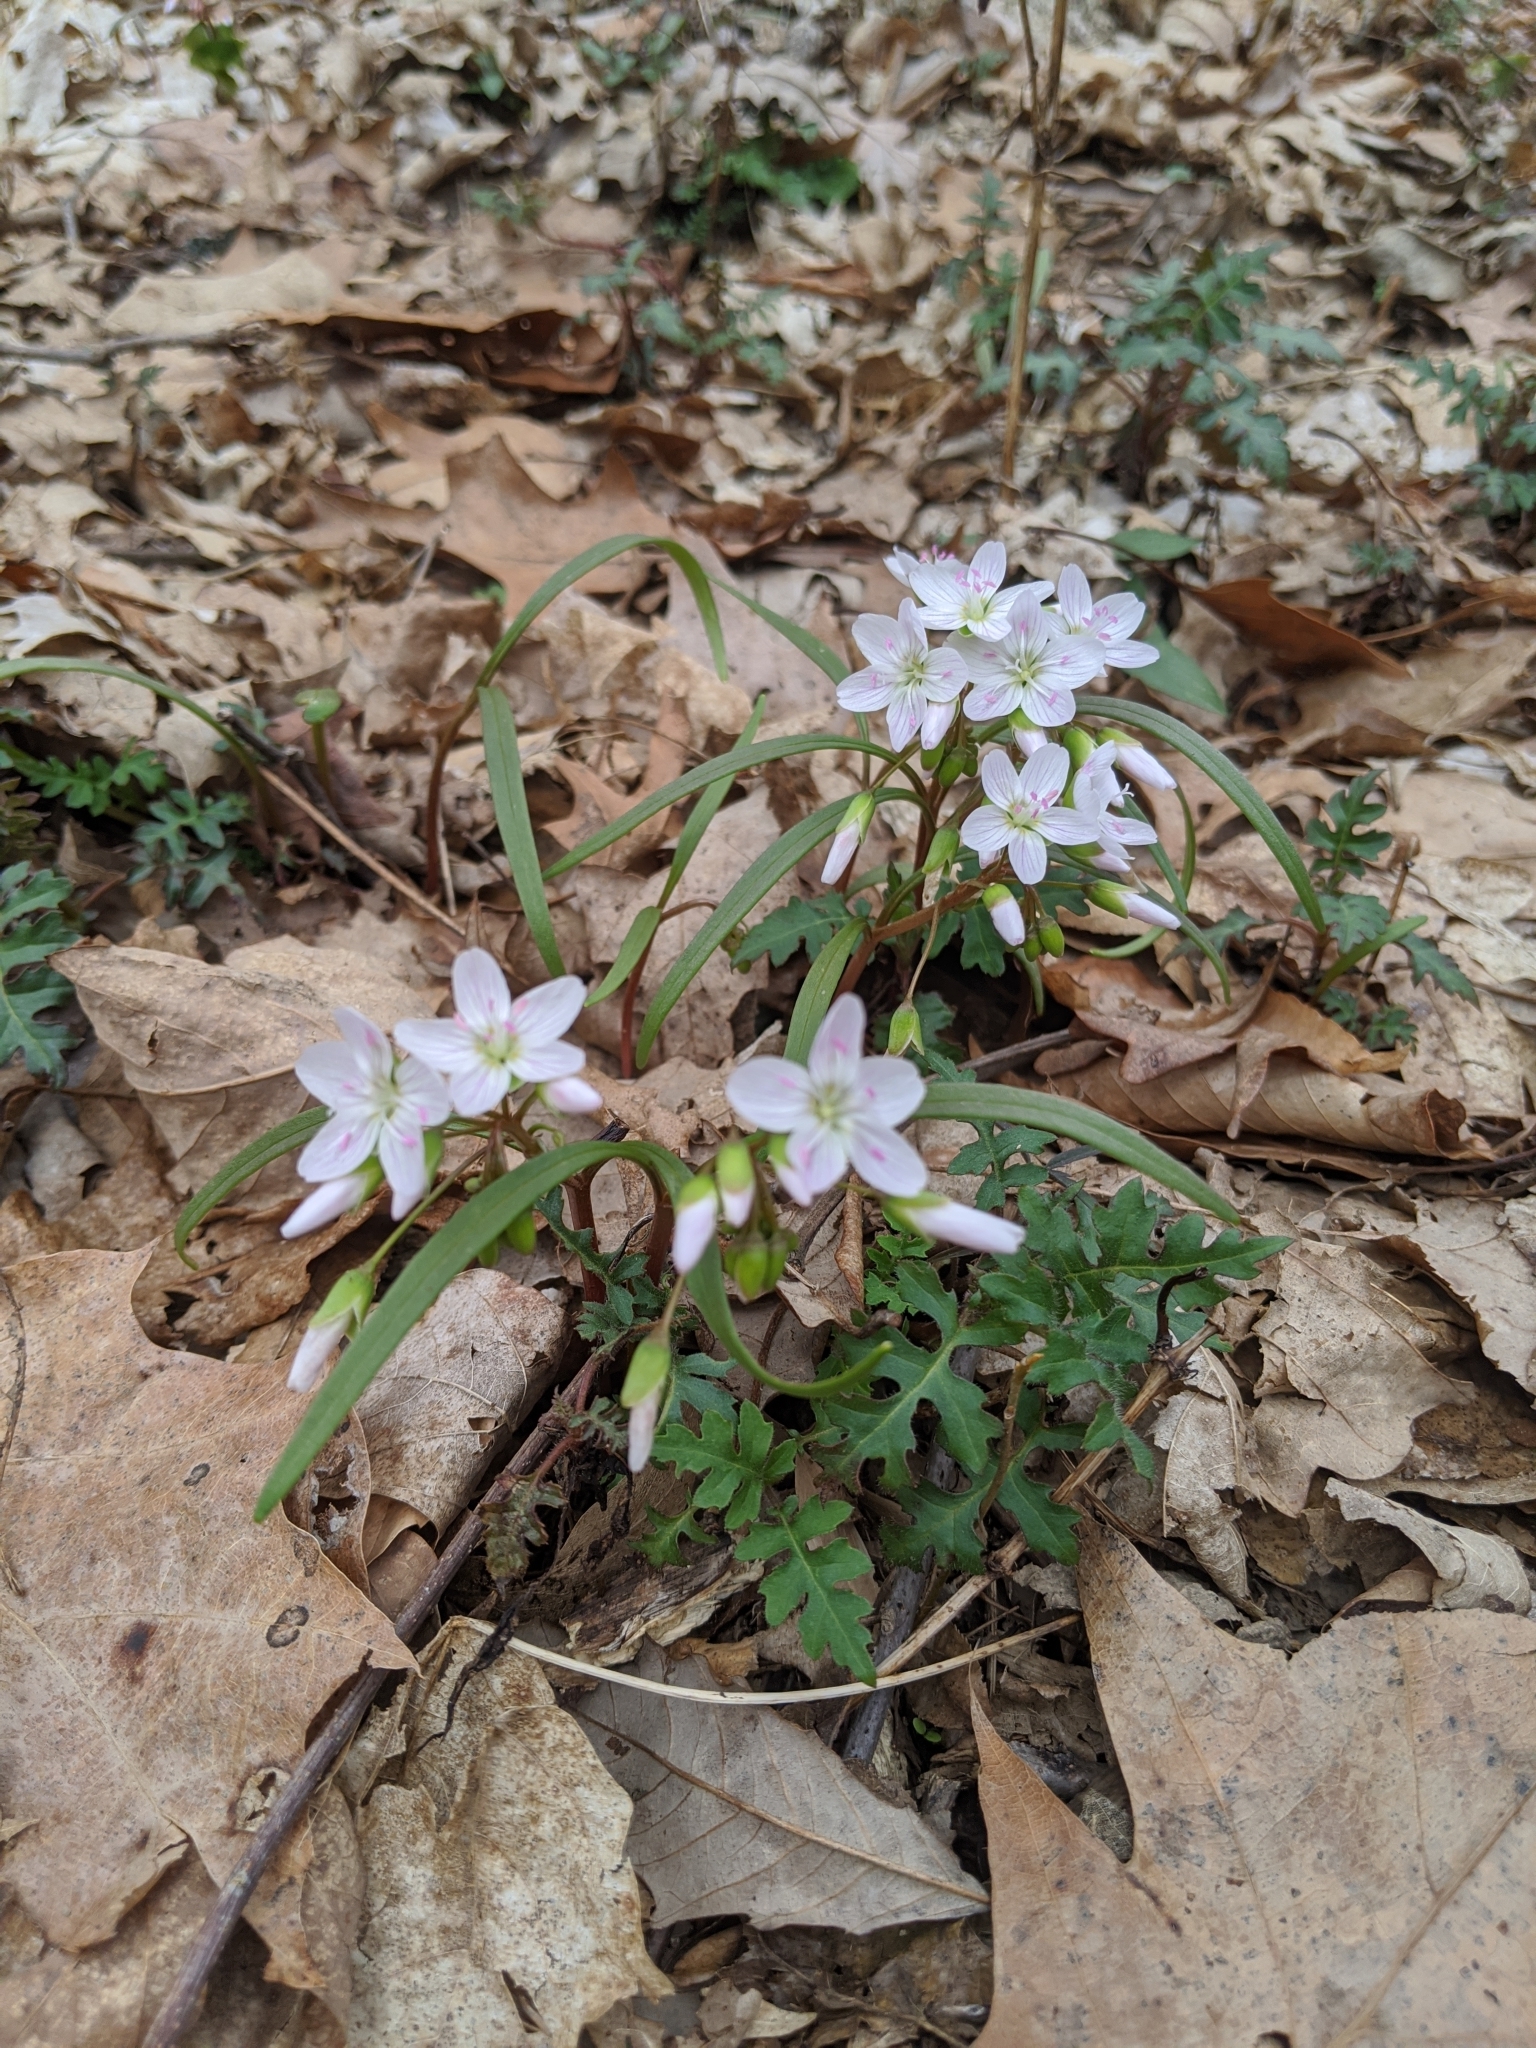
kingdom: Plantae
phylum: Tracheophyta
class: Magnoliopsida
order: Caryophyllales
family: Montiaceae
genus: Claytonia
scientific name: Claytonia virginica
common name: Virginia springbeauty
